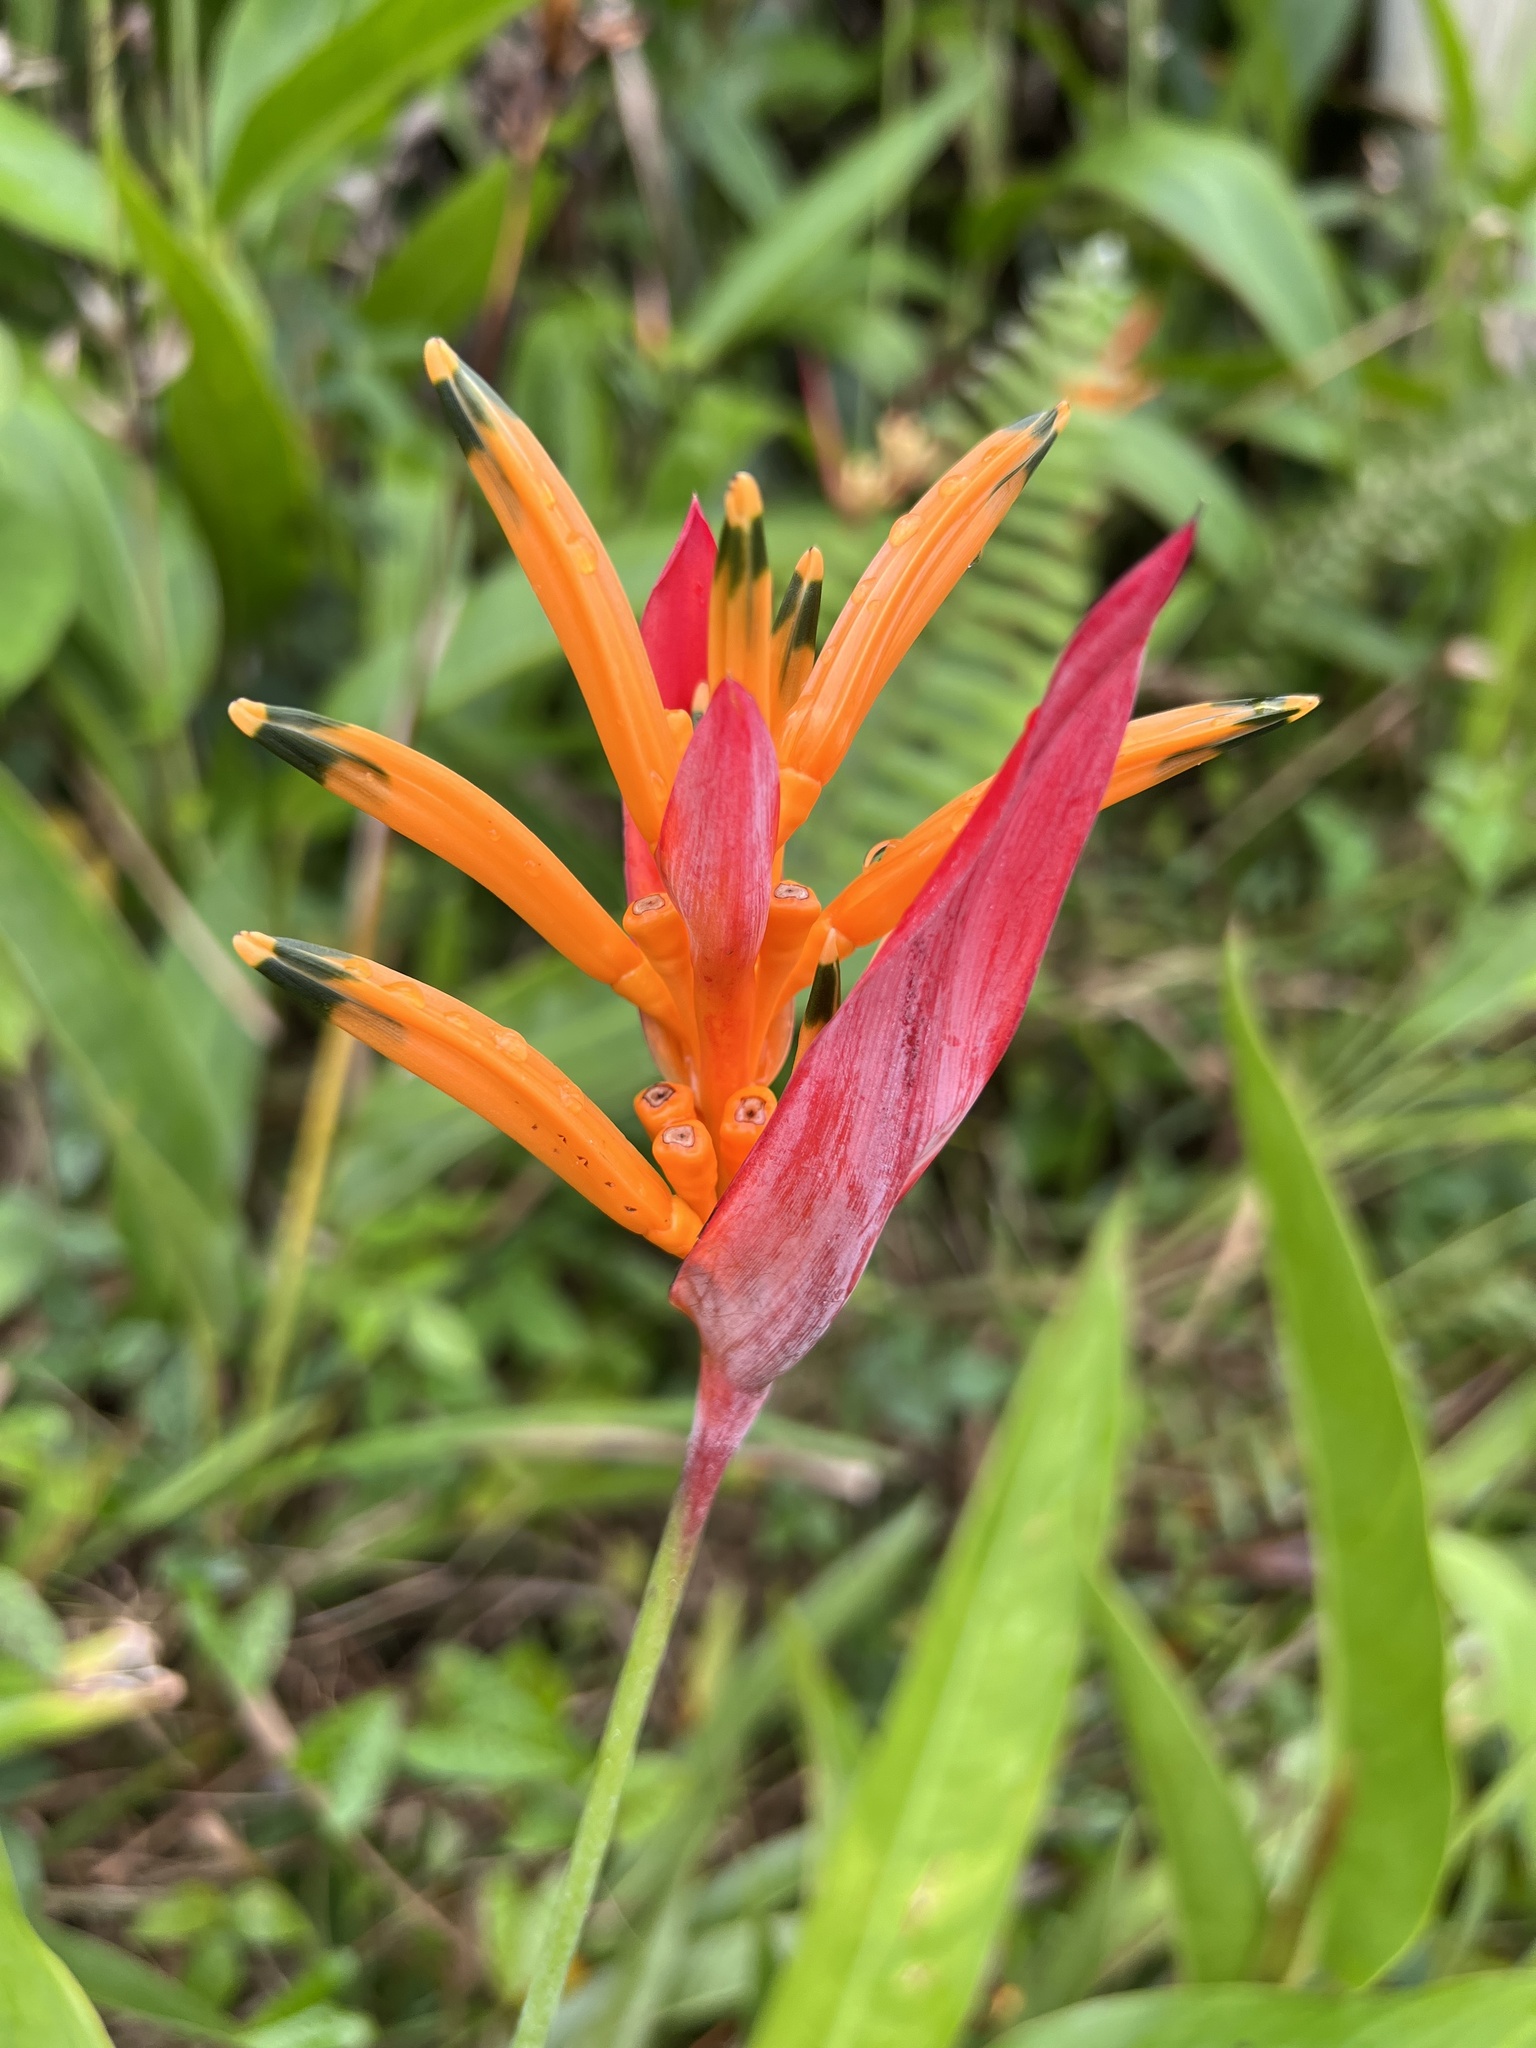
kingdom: Plantae
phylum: Tracheophyta
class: Liliopsida
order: Zingiberales
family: Heliconiaceae
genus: Heliconia
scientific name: Heliconia psittacorum
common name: Parrot's-flower
